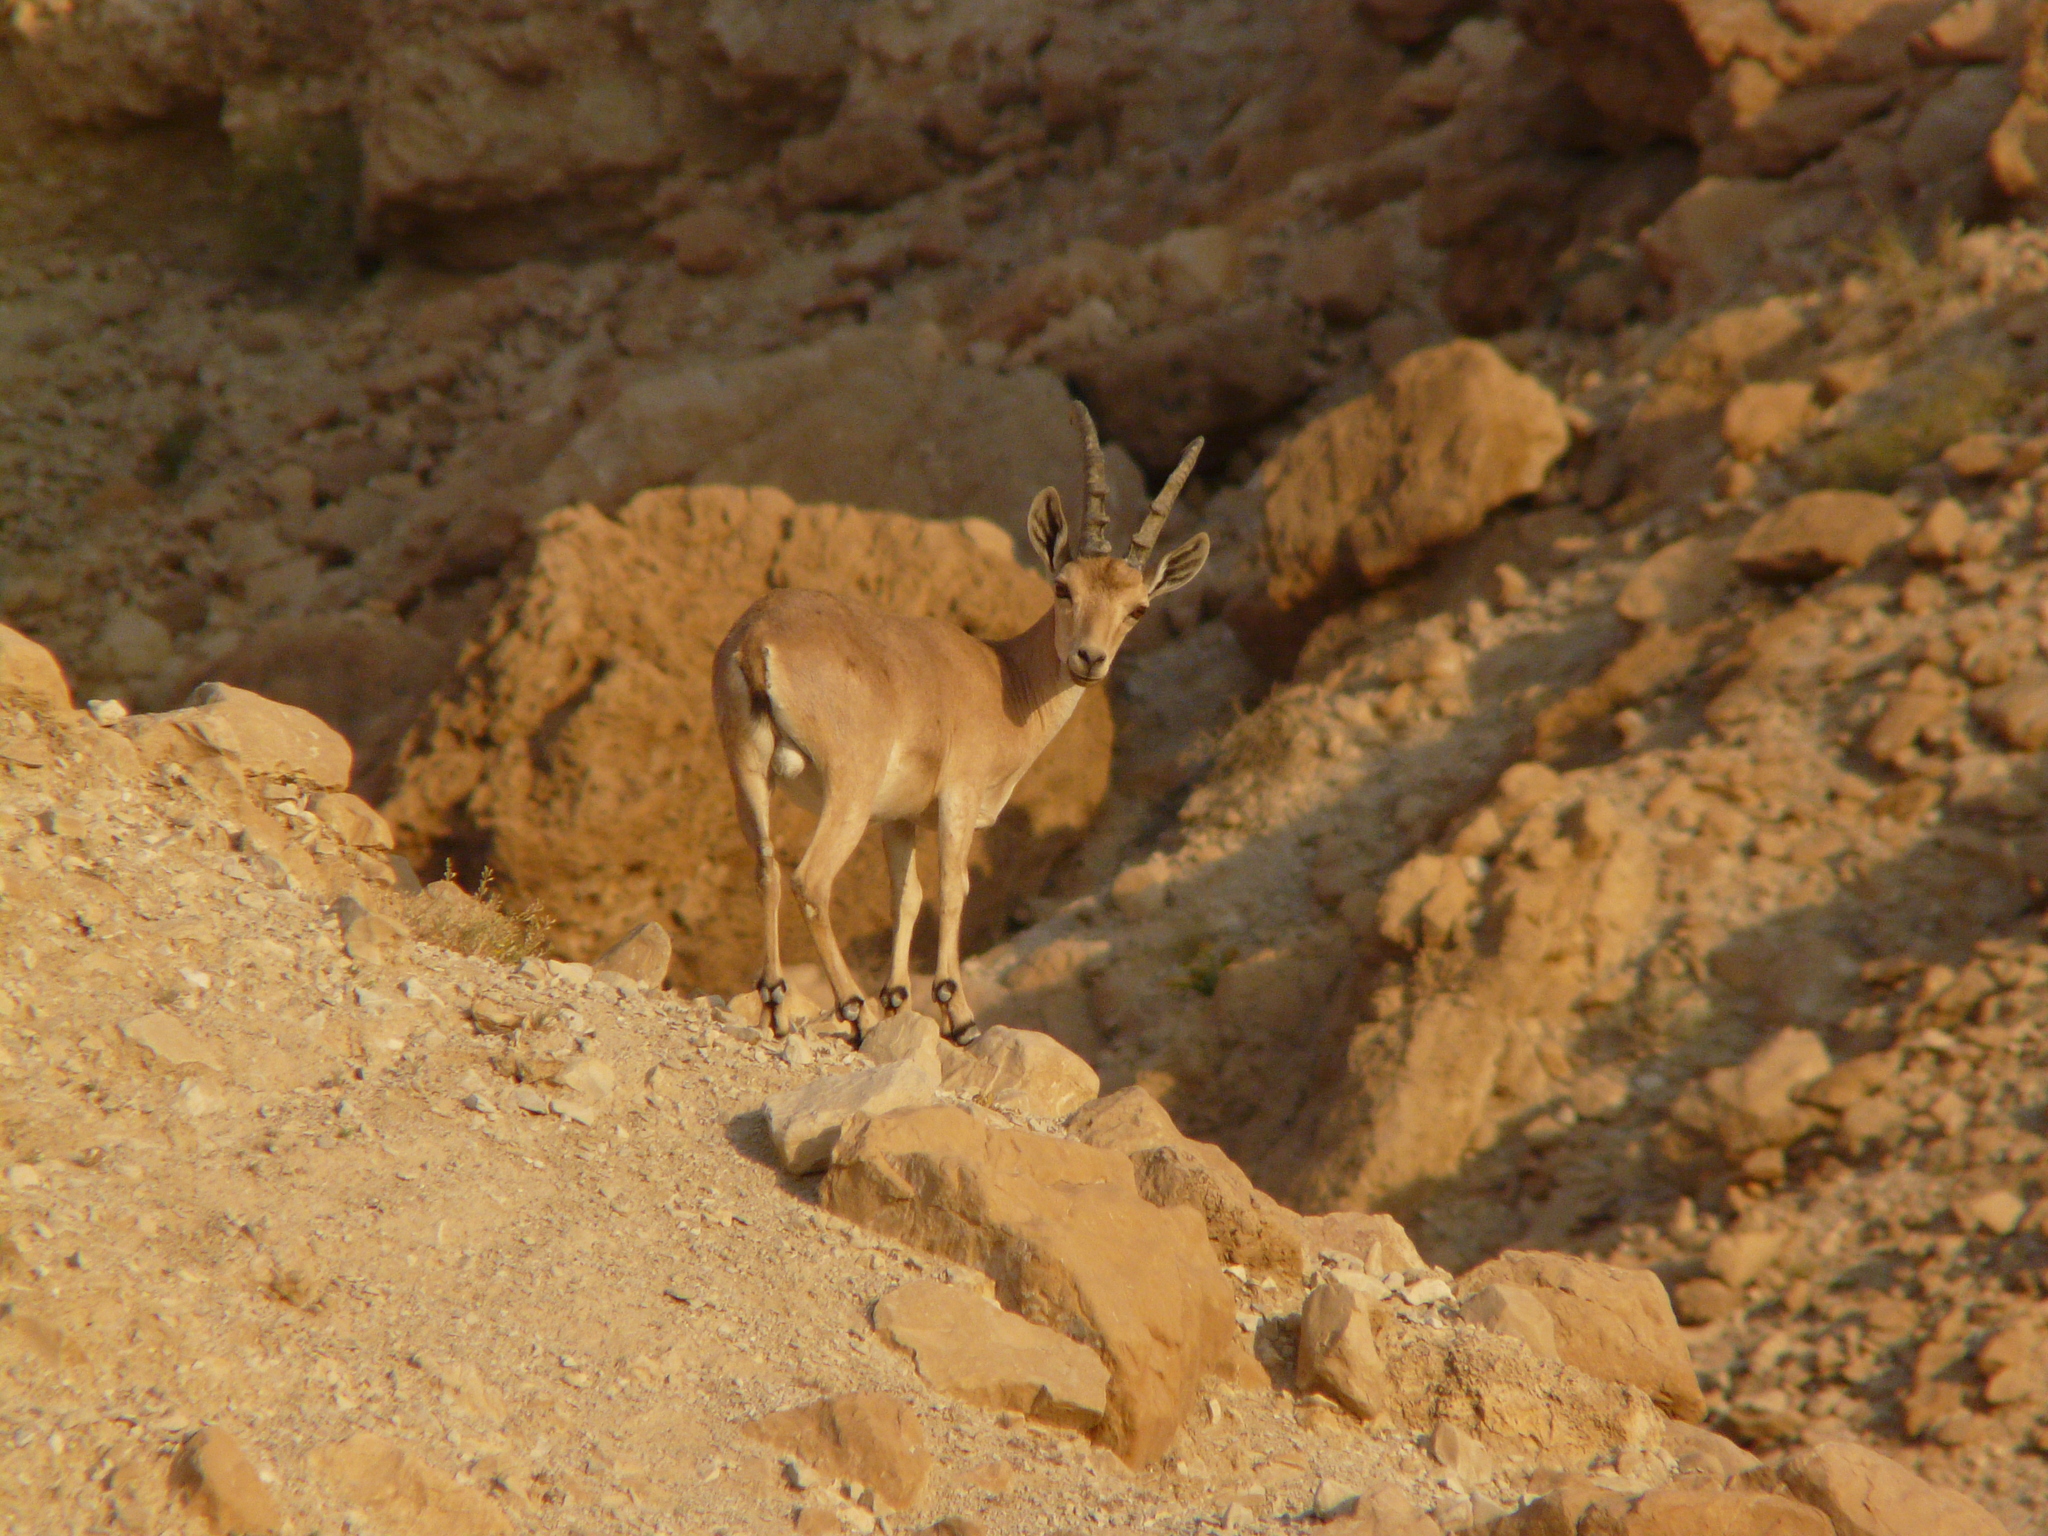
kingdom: Animalia
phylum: Chordata
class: Mammalia
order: Artiodactyla
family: Bovidae
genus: Capra
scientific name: Capra nubiana
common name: Nubian ibex
